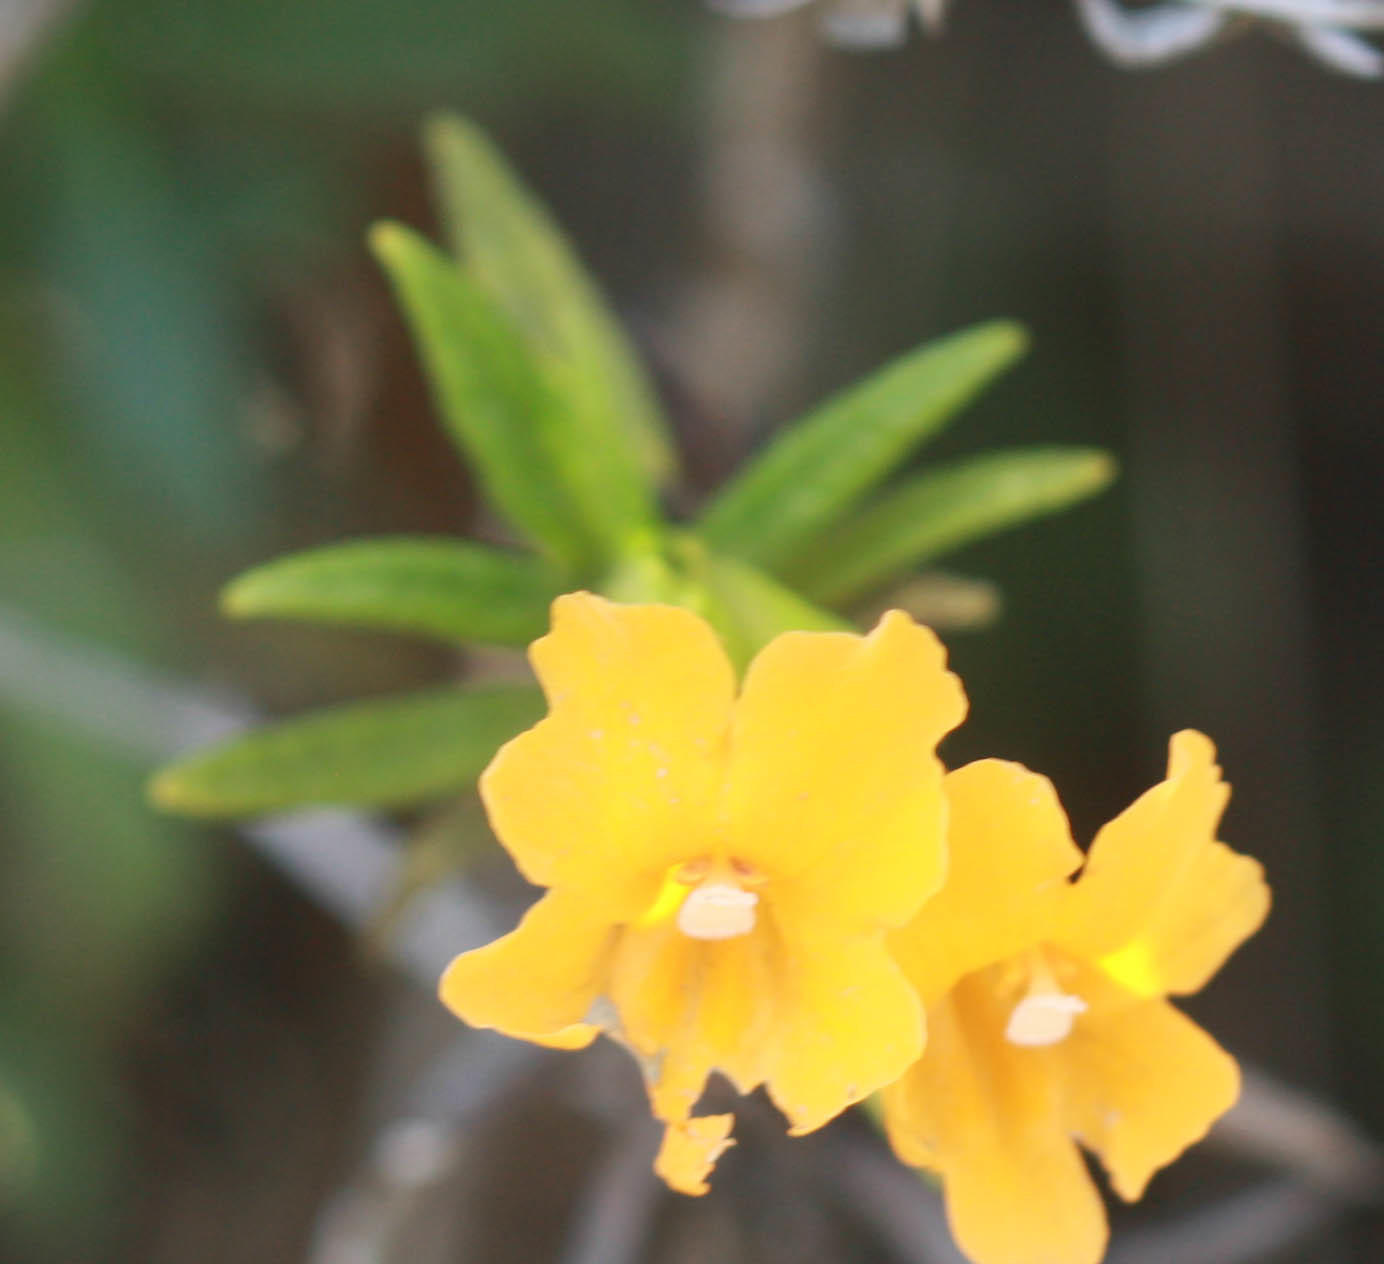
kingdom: Plantae
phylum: Tracheophyta
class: Magnoliopsida
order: Lamiales
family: Phrymaceae
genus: Diplacus
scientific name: Diplacus aurantiacus
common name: Bush monkey-flower
